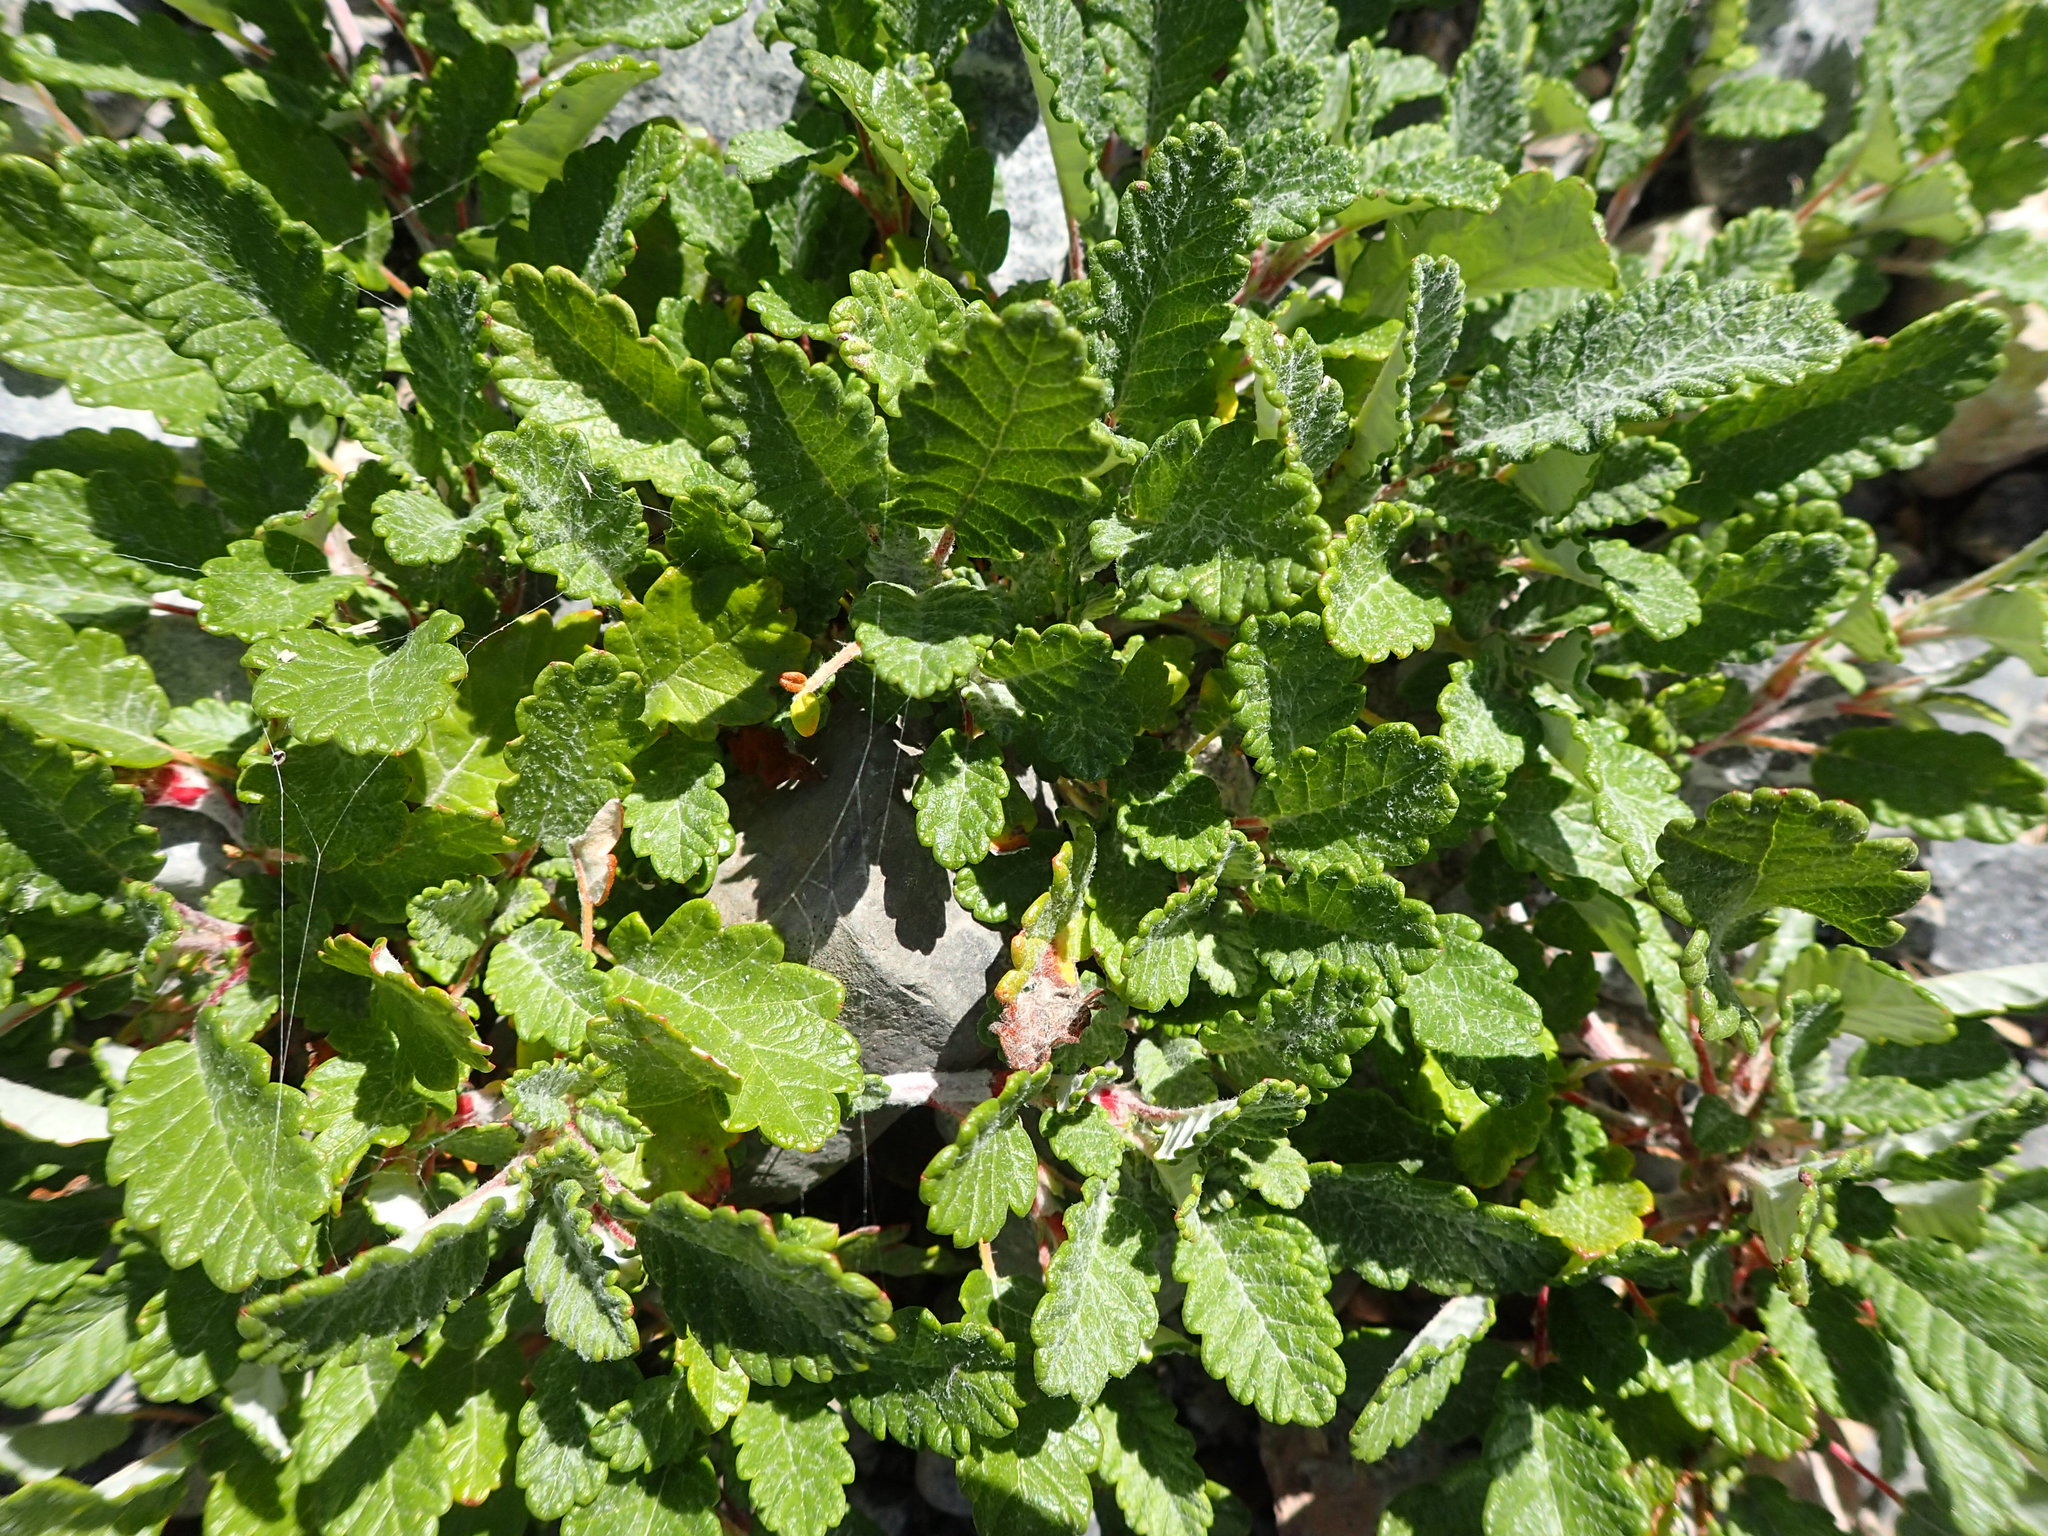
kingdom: Plantae
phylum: Tracheophyta
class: Magnoliopsida
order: Rosales
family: Rosaceae
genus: Dryas
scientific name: Dryas drummondii
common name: Drummond's dryad
